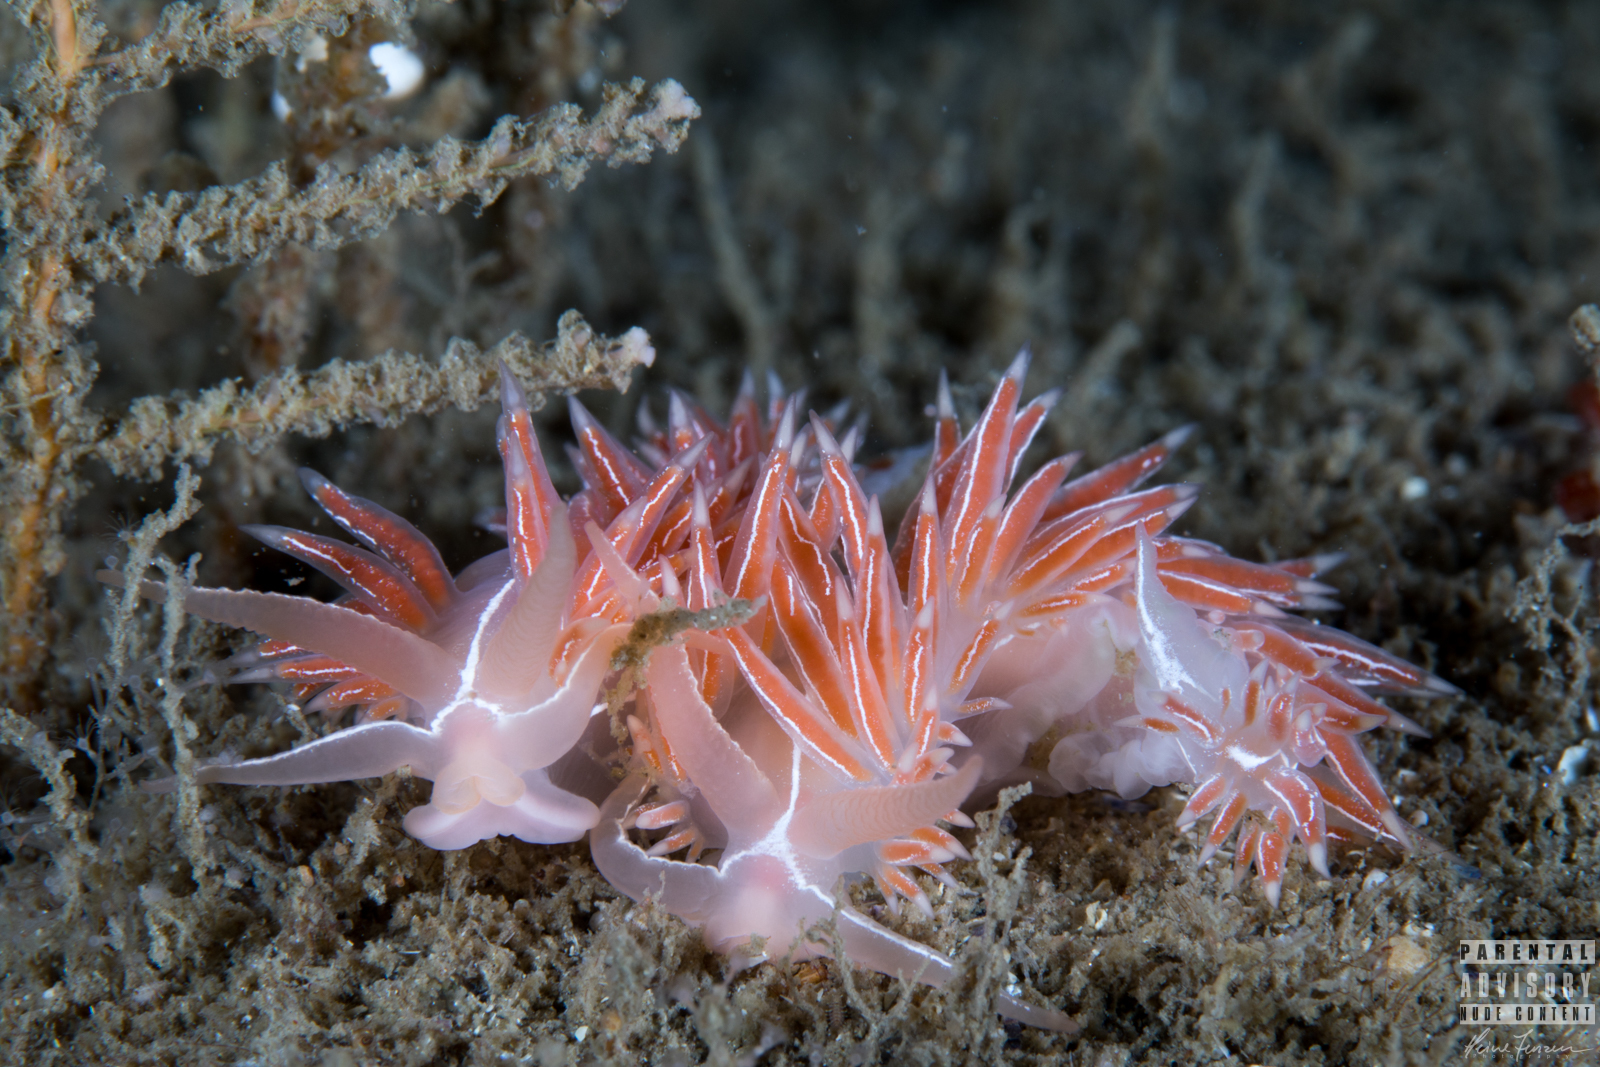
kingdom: Animalia
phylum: Mollusca
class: Gastropoda
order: Nudibranchia
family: Coryphellidae
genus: Coryphella
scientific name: Coryphella chriskaugei
